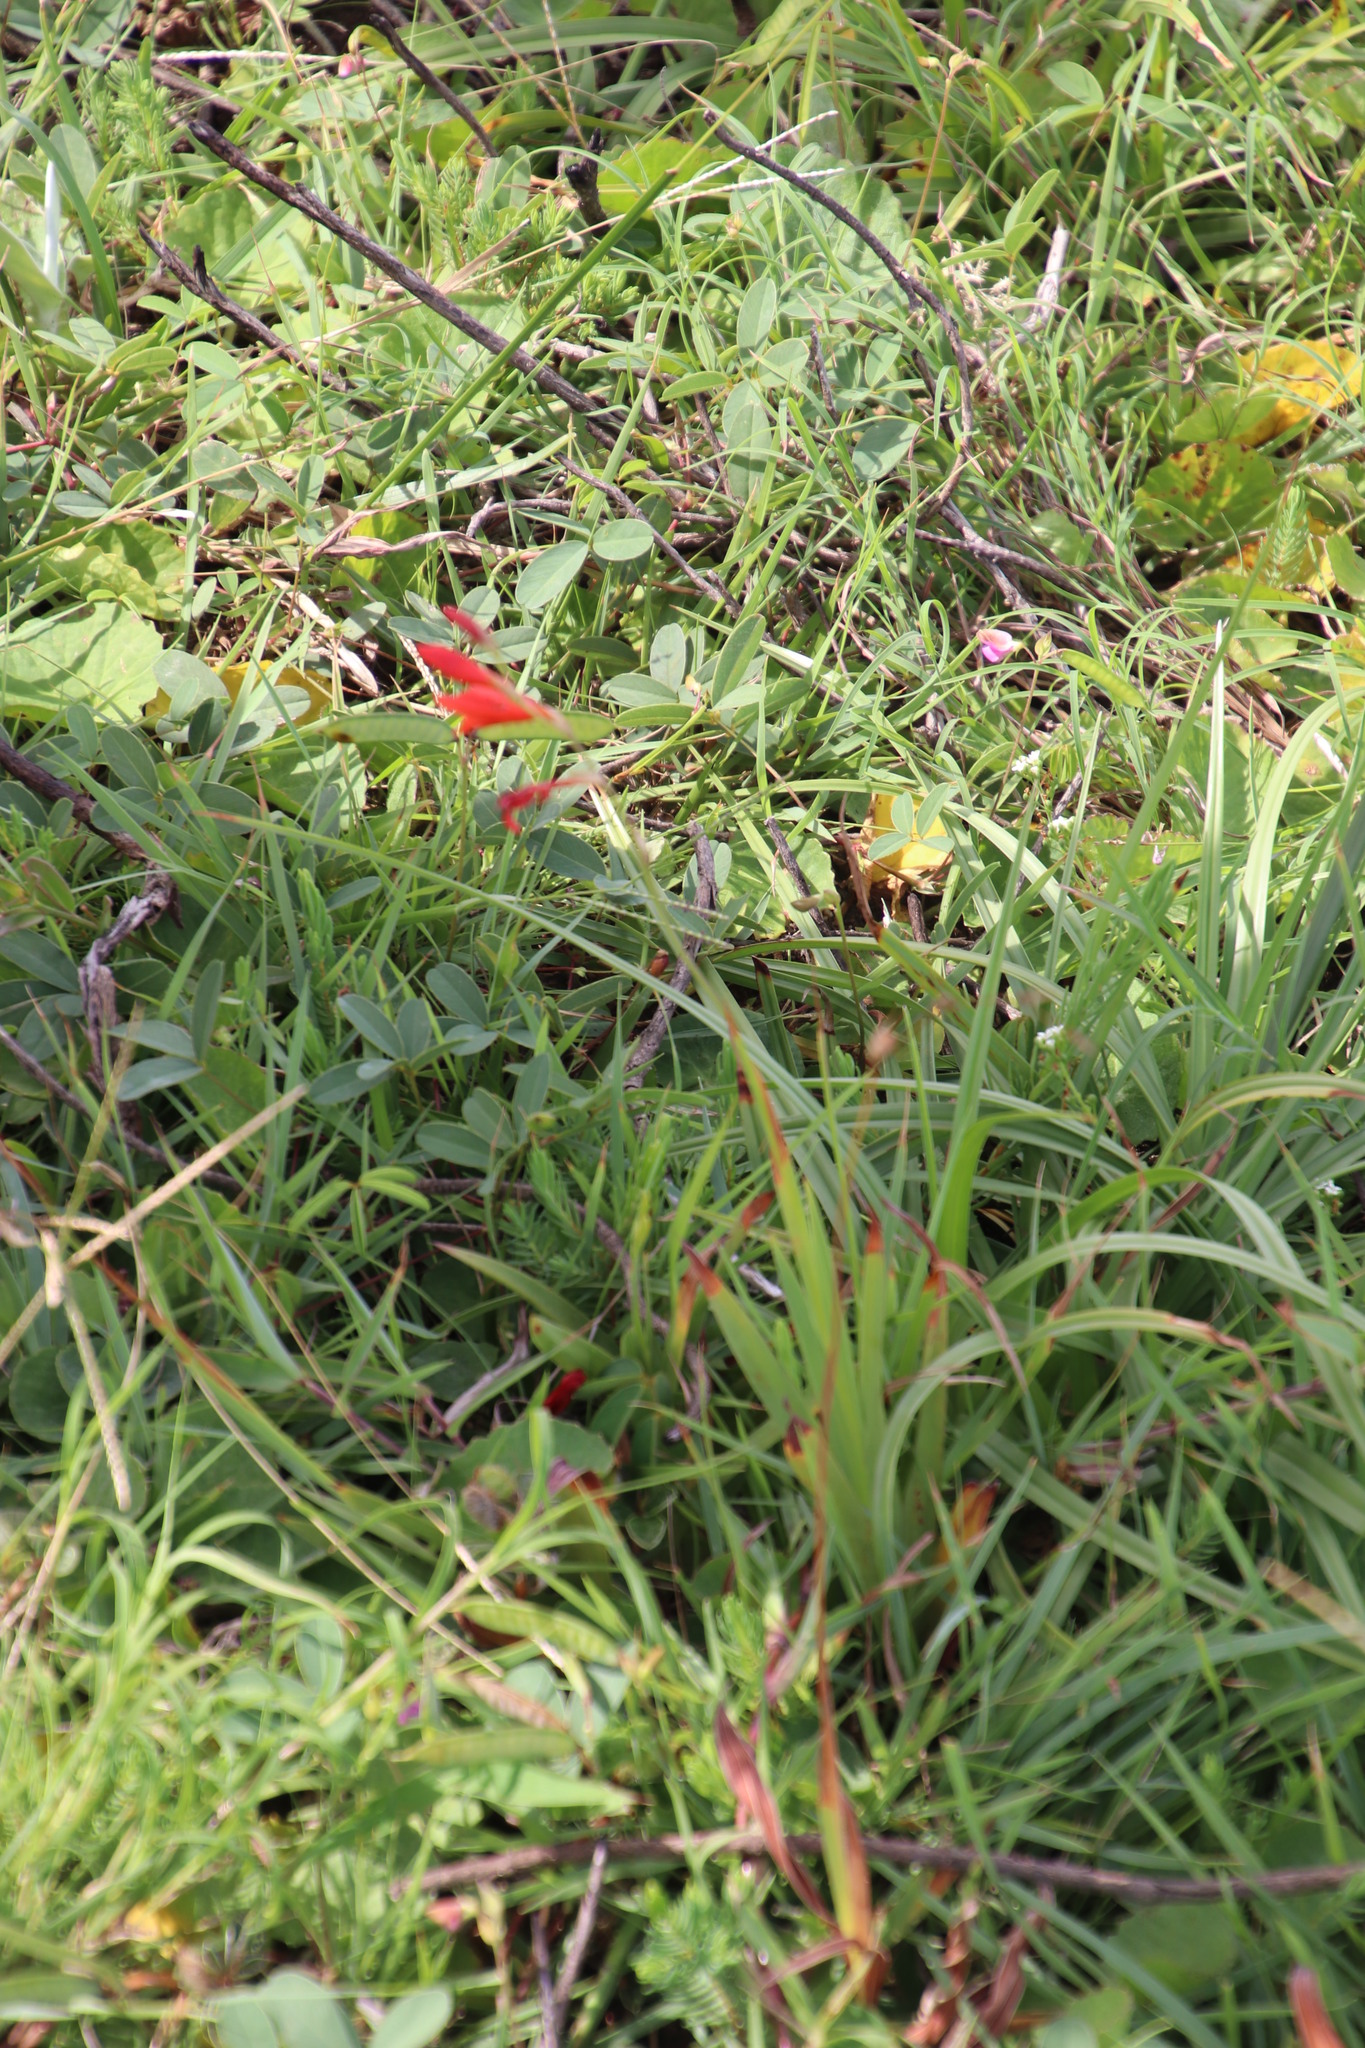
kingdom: Plantae
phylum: Tracheophyta
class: Liliopsida
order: Asparagales
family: Iridaceae
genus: Tritonia
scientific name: Tritonia disticha
